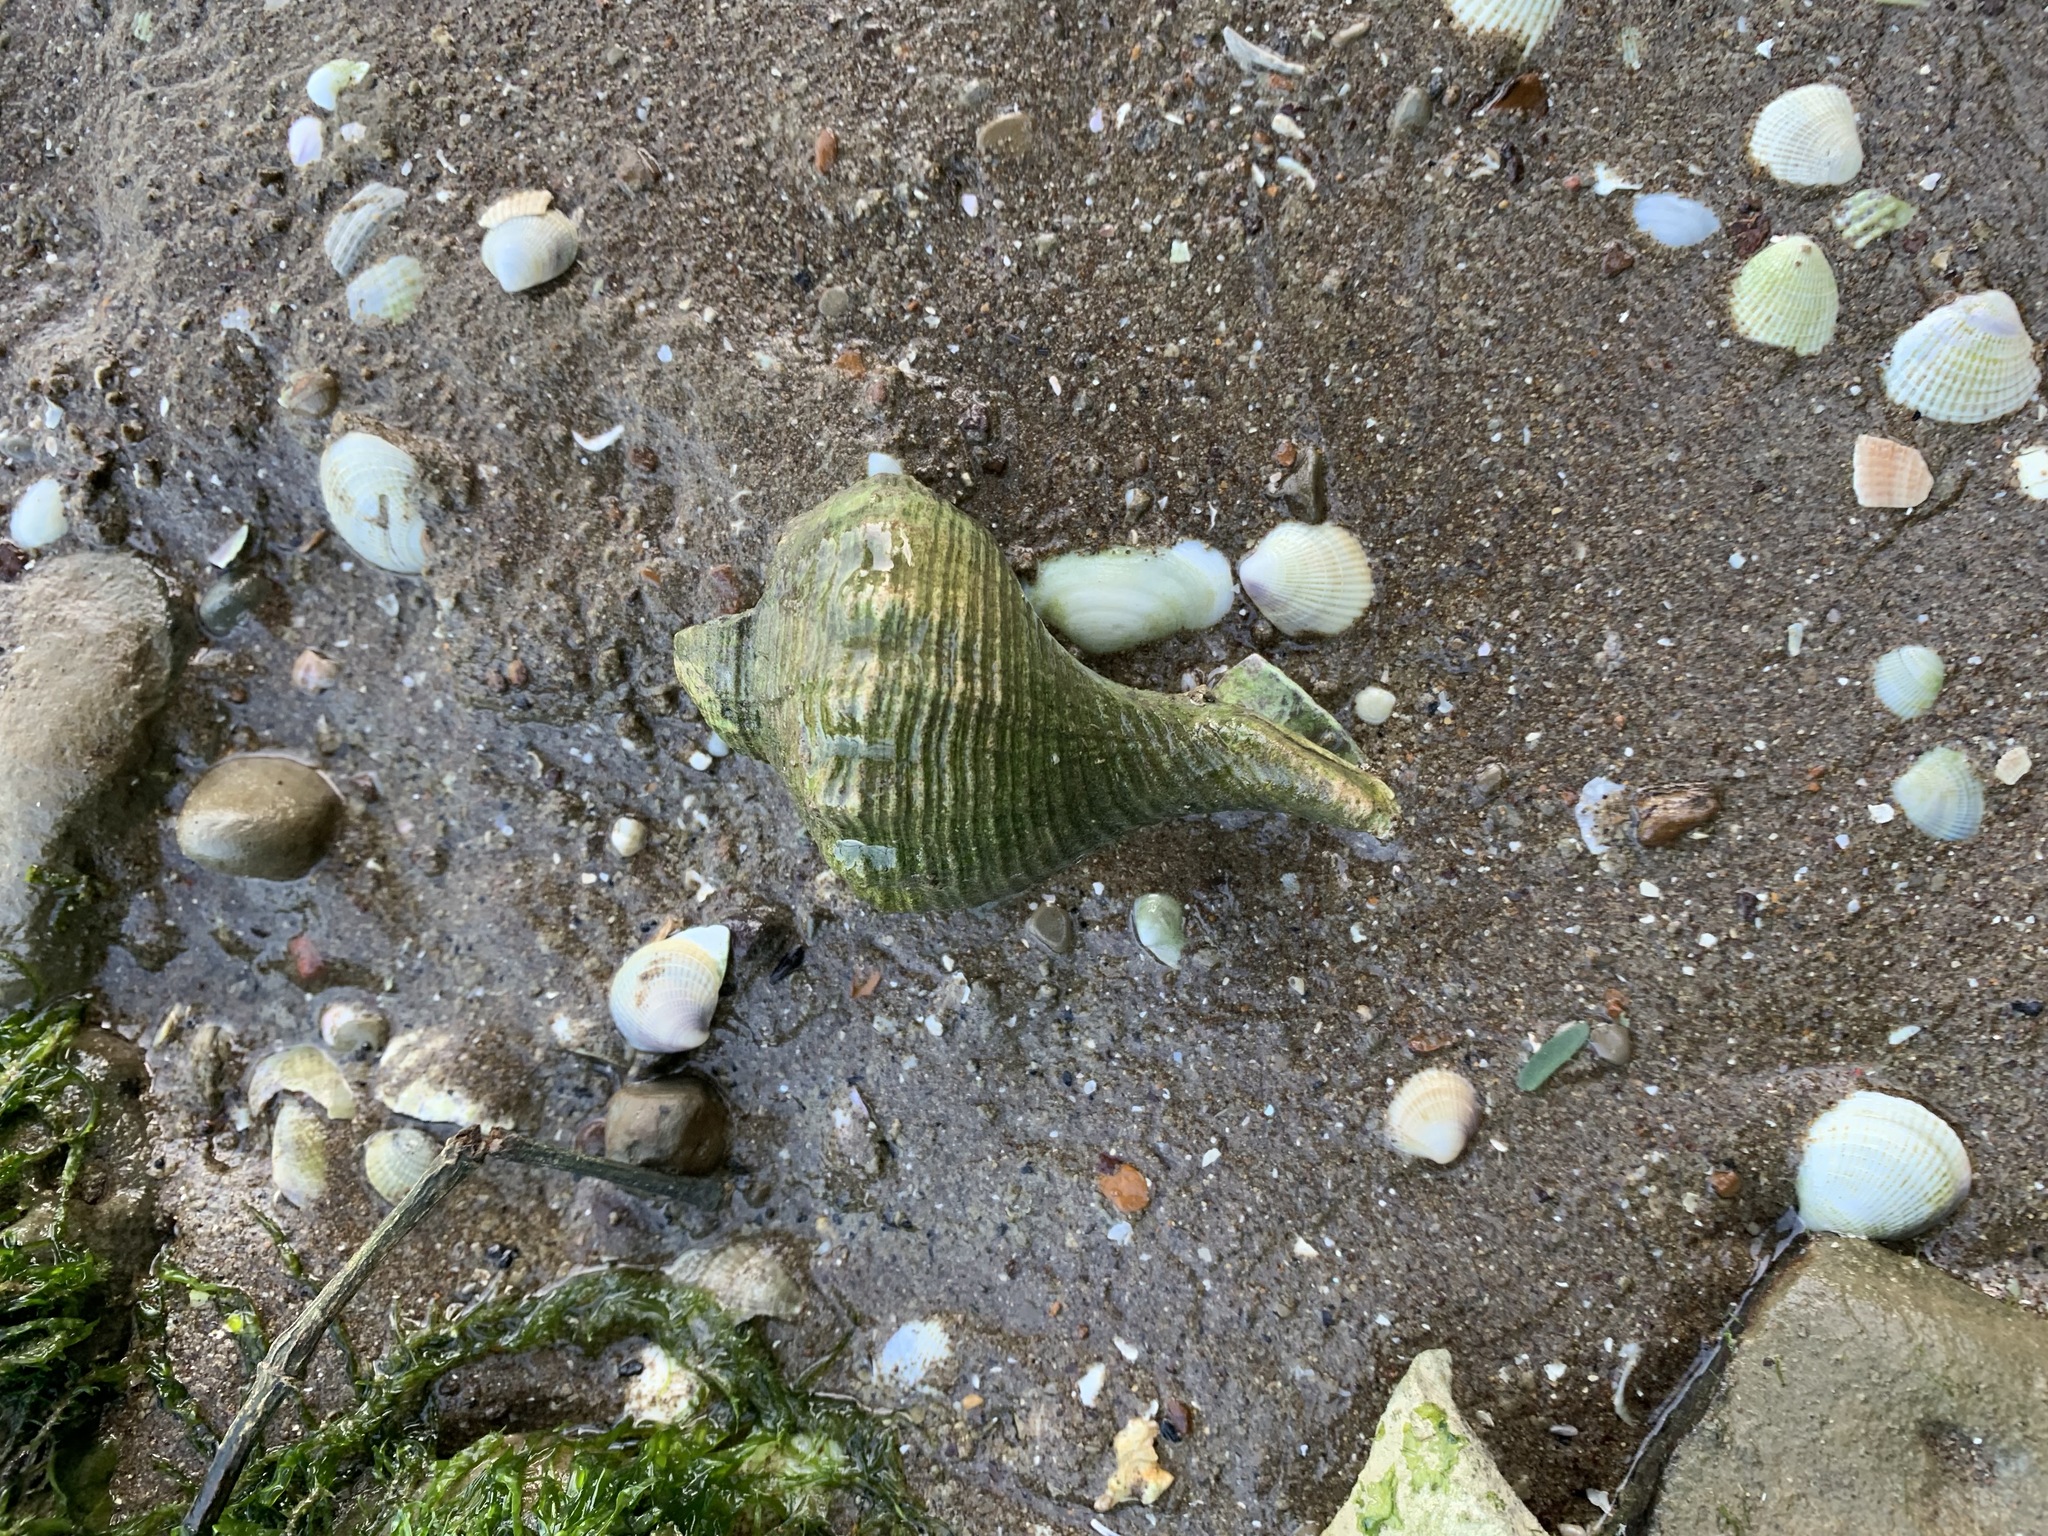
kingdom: Animalia
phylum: Mollusca
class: Gastropoda
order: Neogastropoda
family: Austrosiphonidae
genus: Penion
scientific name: Penion sulcatus
